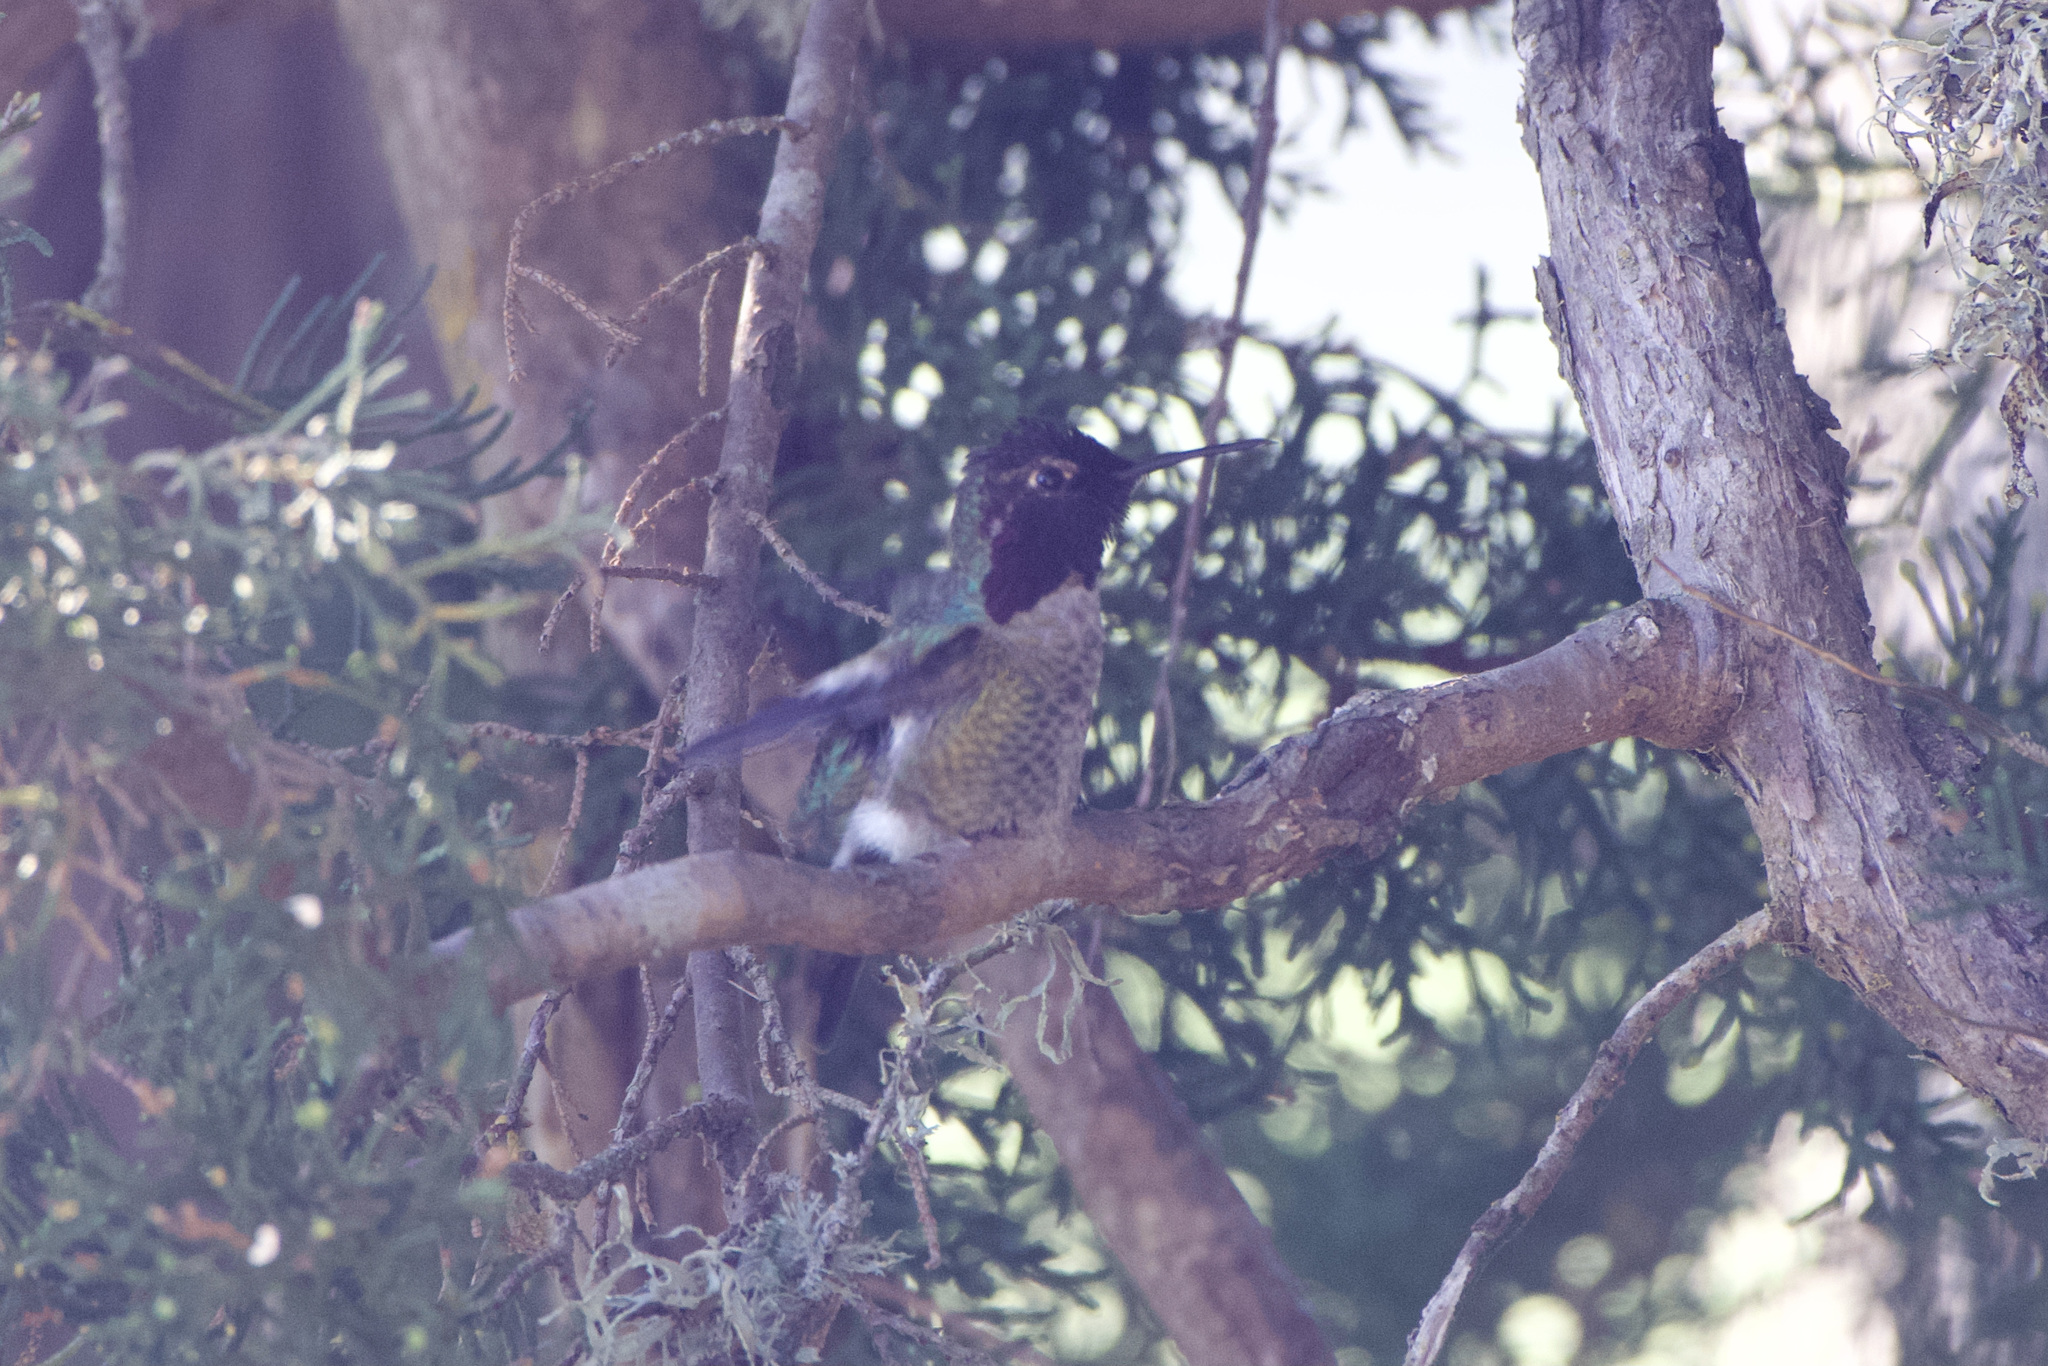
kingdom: Animalia
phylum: Chordata
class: Aves
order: Apodiformes
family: Trochilidae
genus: Calypte
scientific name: Calypte anna
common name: Anna's hummingbird
